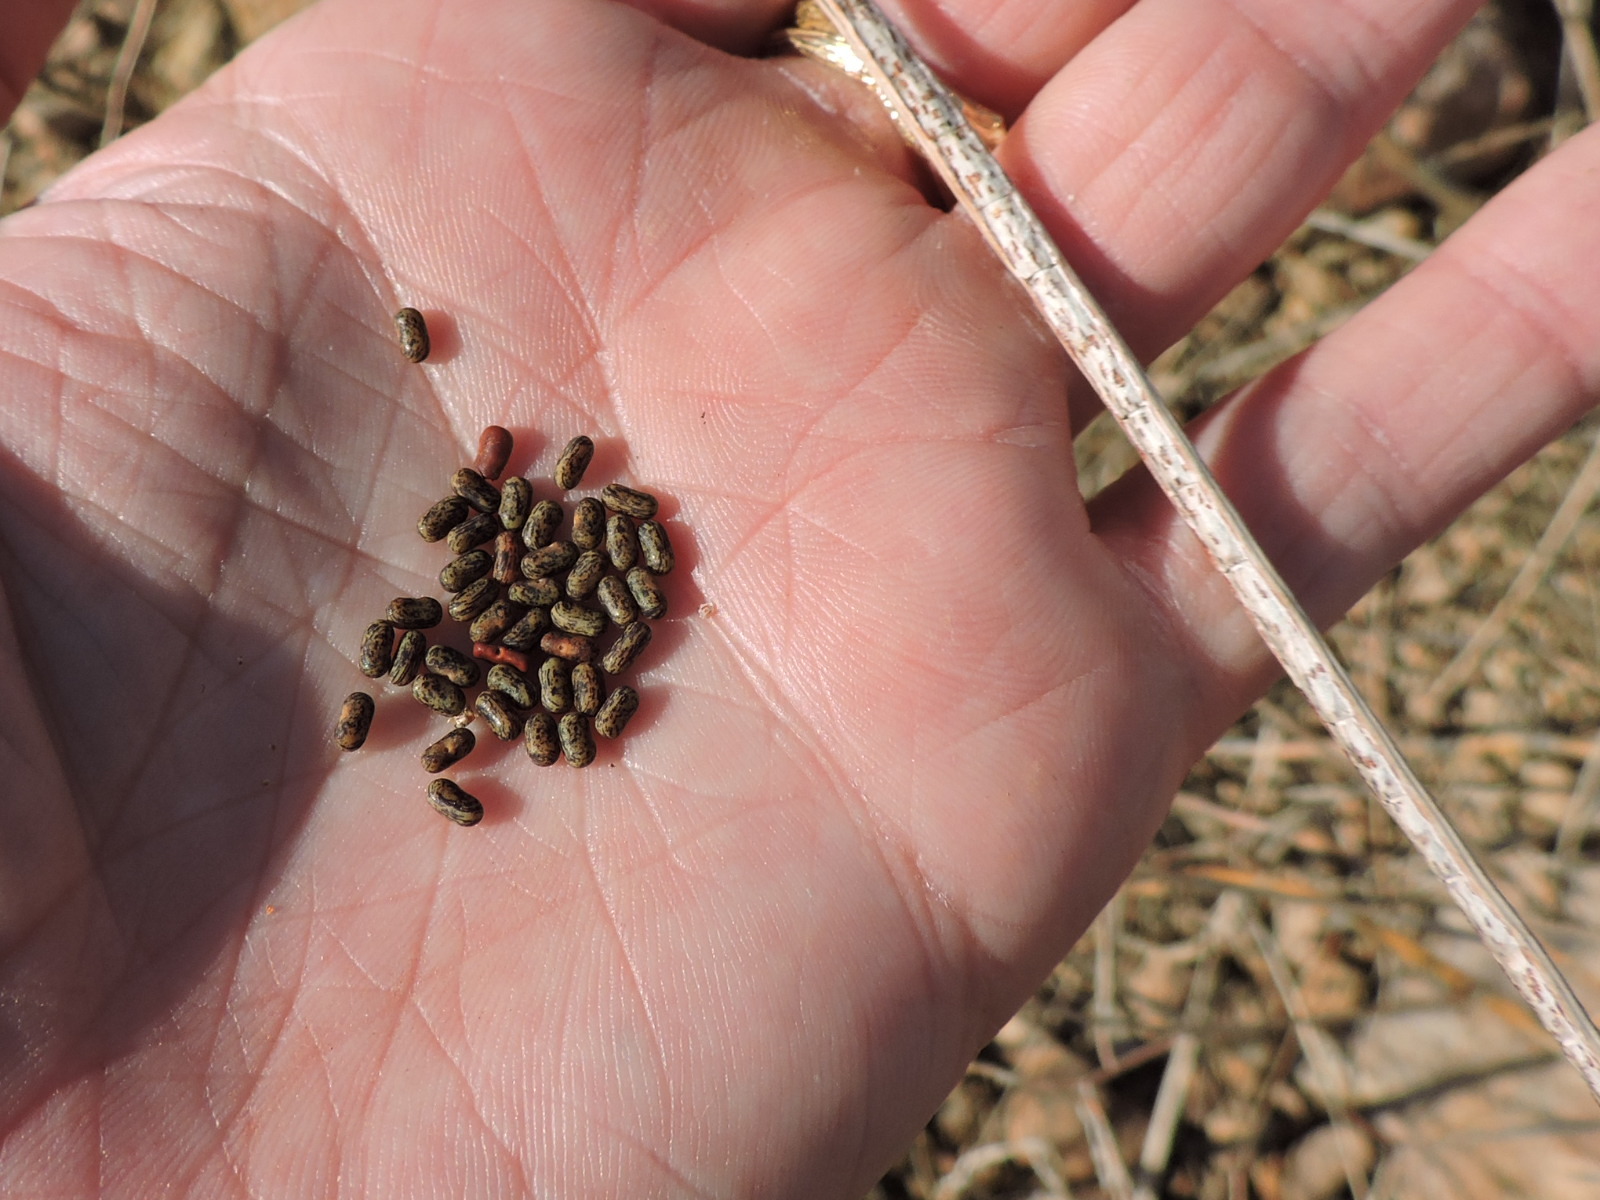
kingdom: Plantae
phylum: Tracheophyta
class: Magnoliopsida
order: Fabales
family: Fabaceae
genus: Sesbania
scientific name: Sesbania herbacea
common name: Bigpod sesbania
